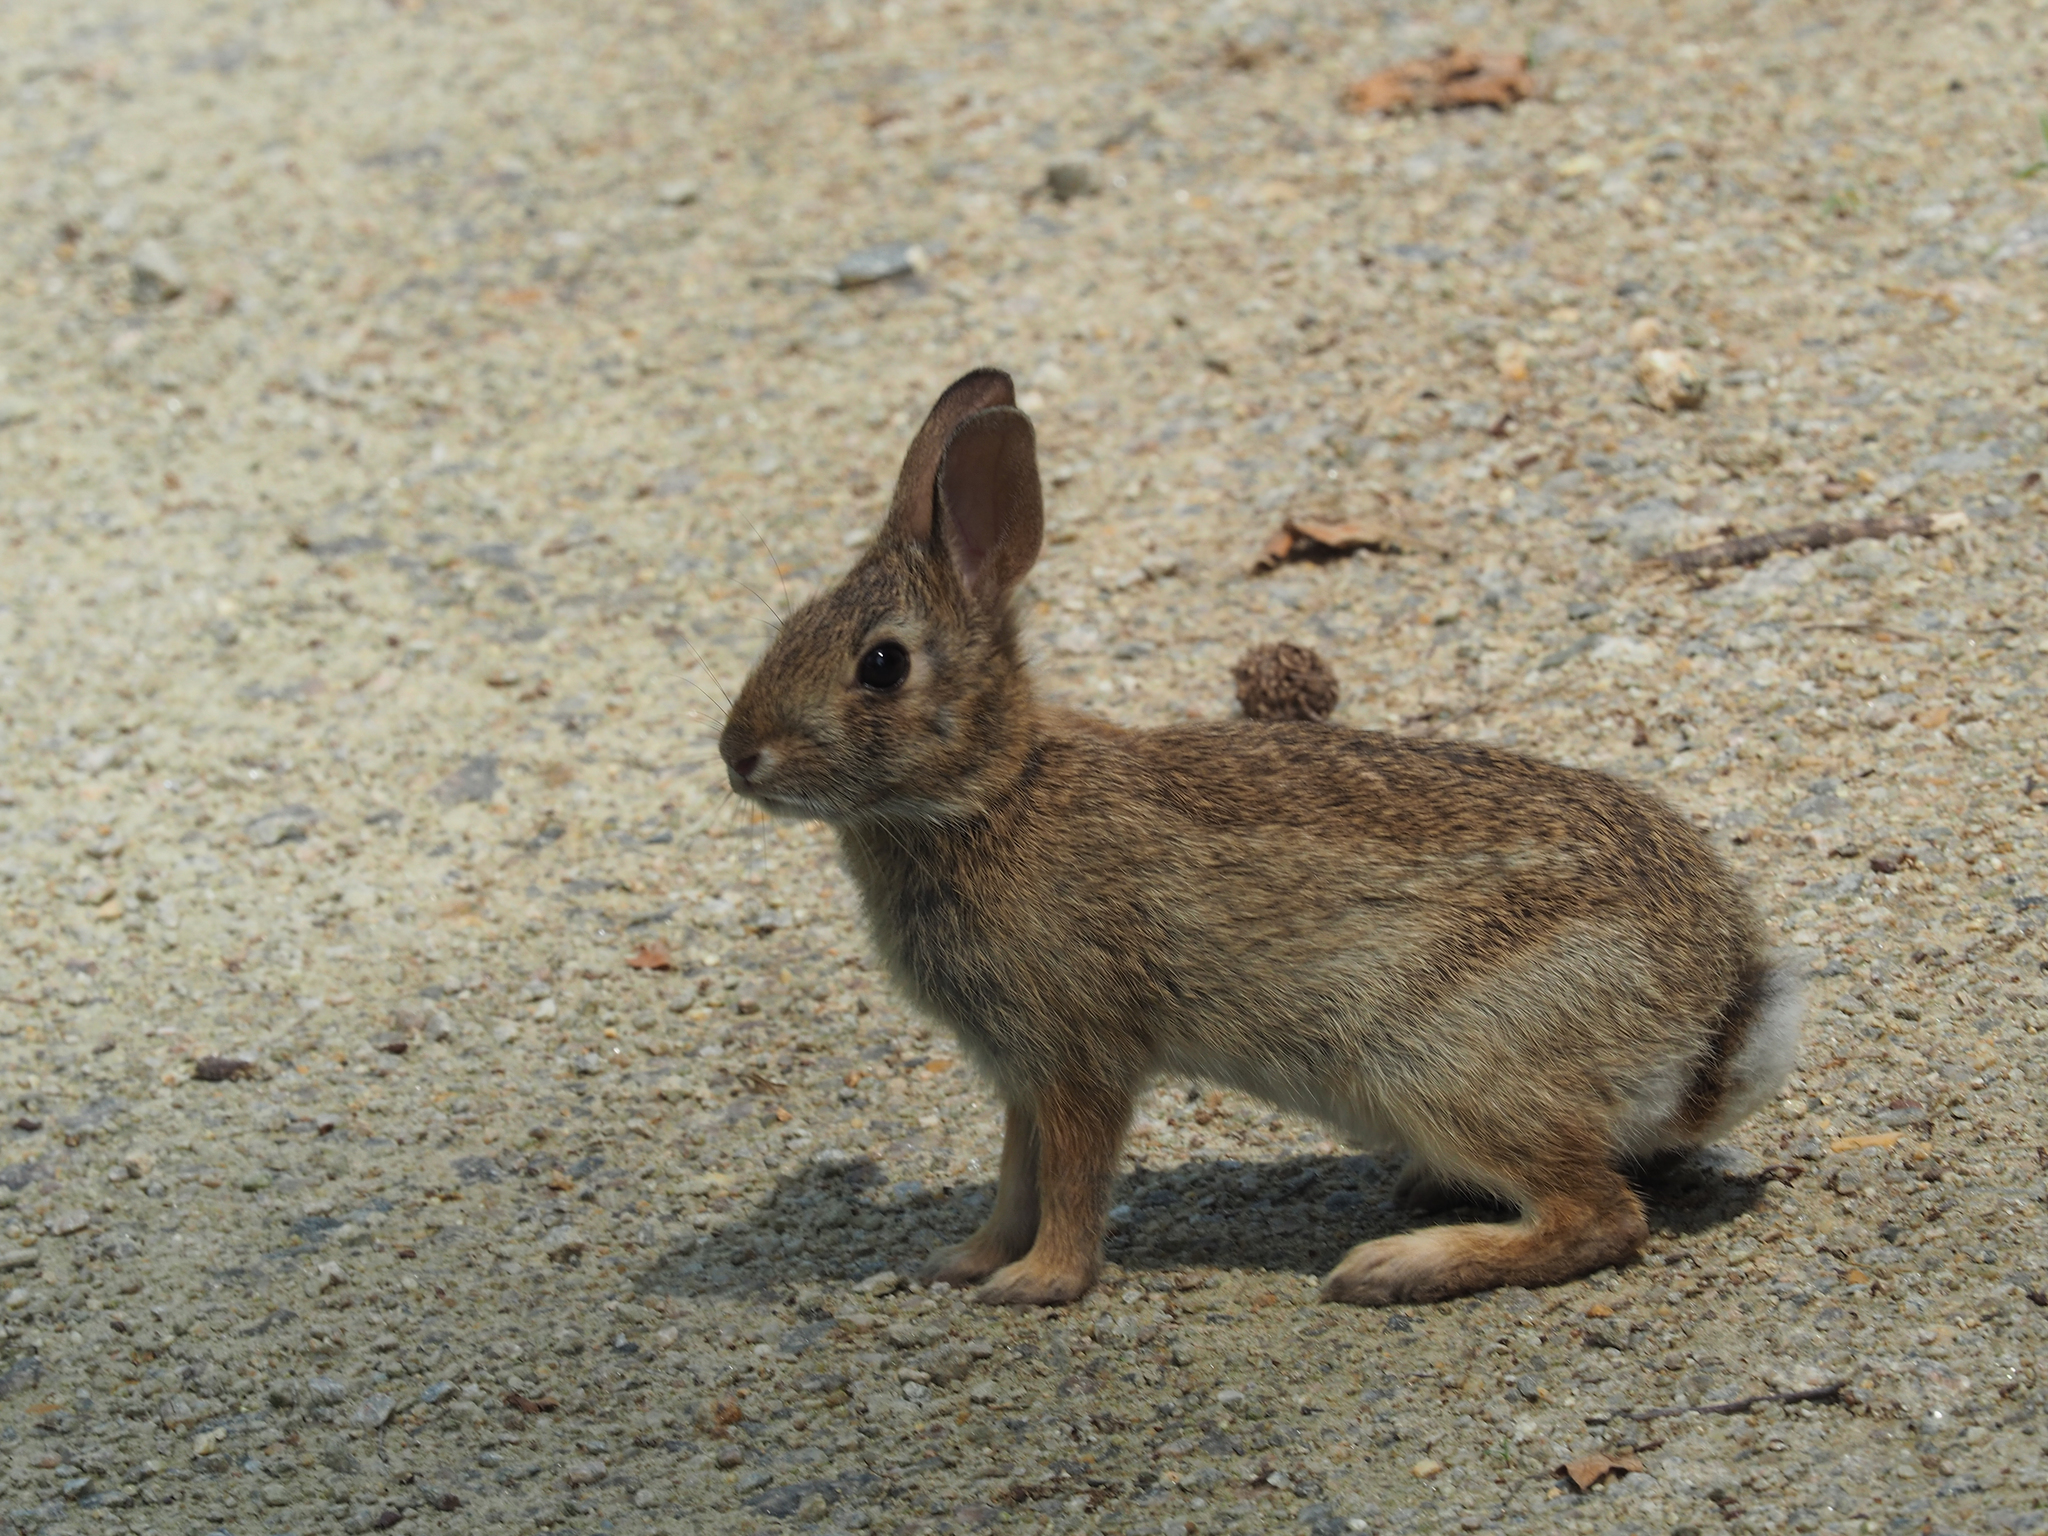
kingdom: Animalia
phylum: Chordata
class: Mammalia
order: Lagomorpha
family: Leporidae
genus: Sylvilagus
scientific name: Sylvilagus floridanus
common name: Eastern cottontail
